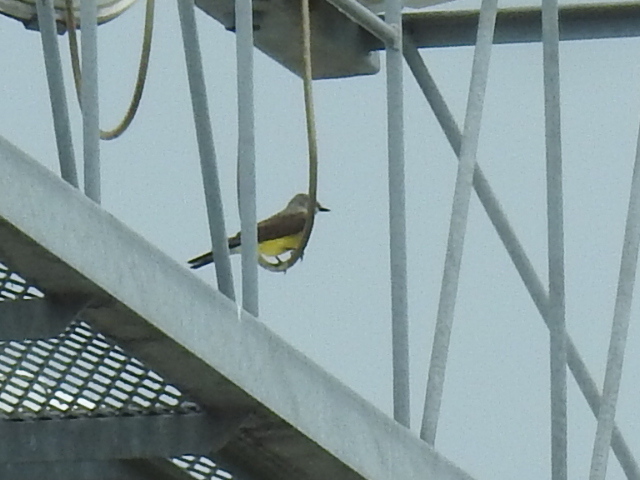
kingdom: Animalia
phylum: Chordata
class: Aves
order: Passeriformes
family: Tyrannidae
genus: Tyrannus
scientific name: Tyrannus verticalis
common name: Western kingbird
